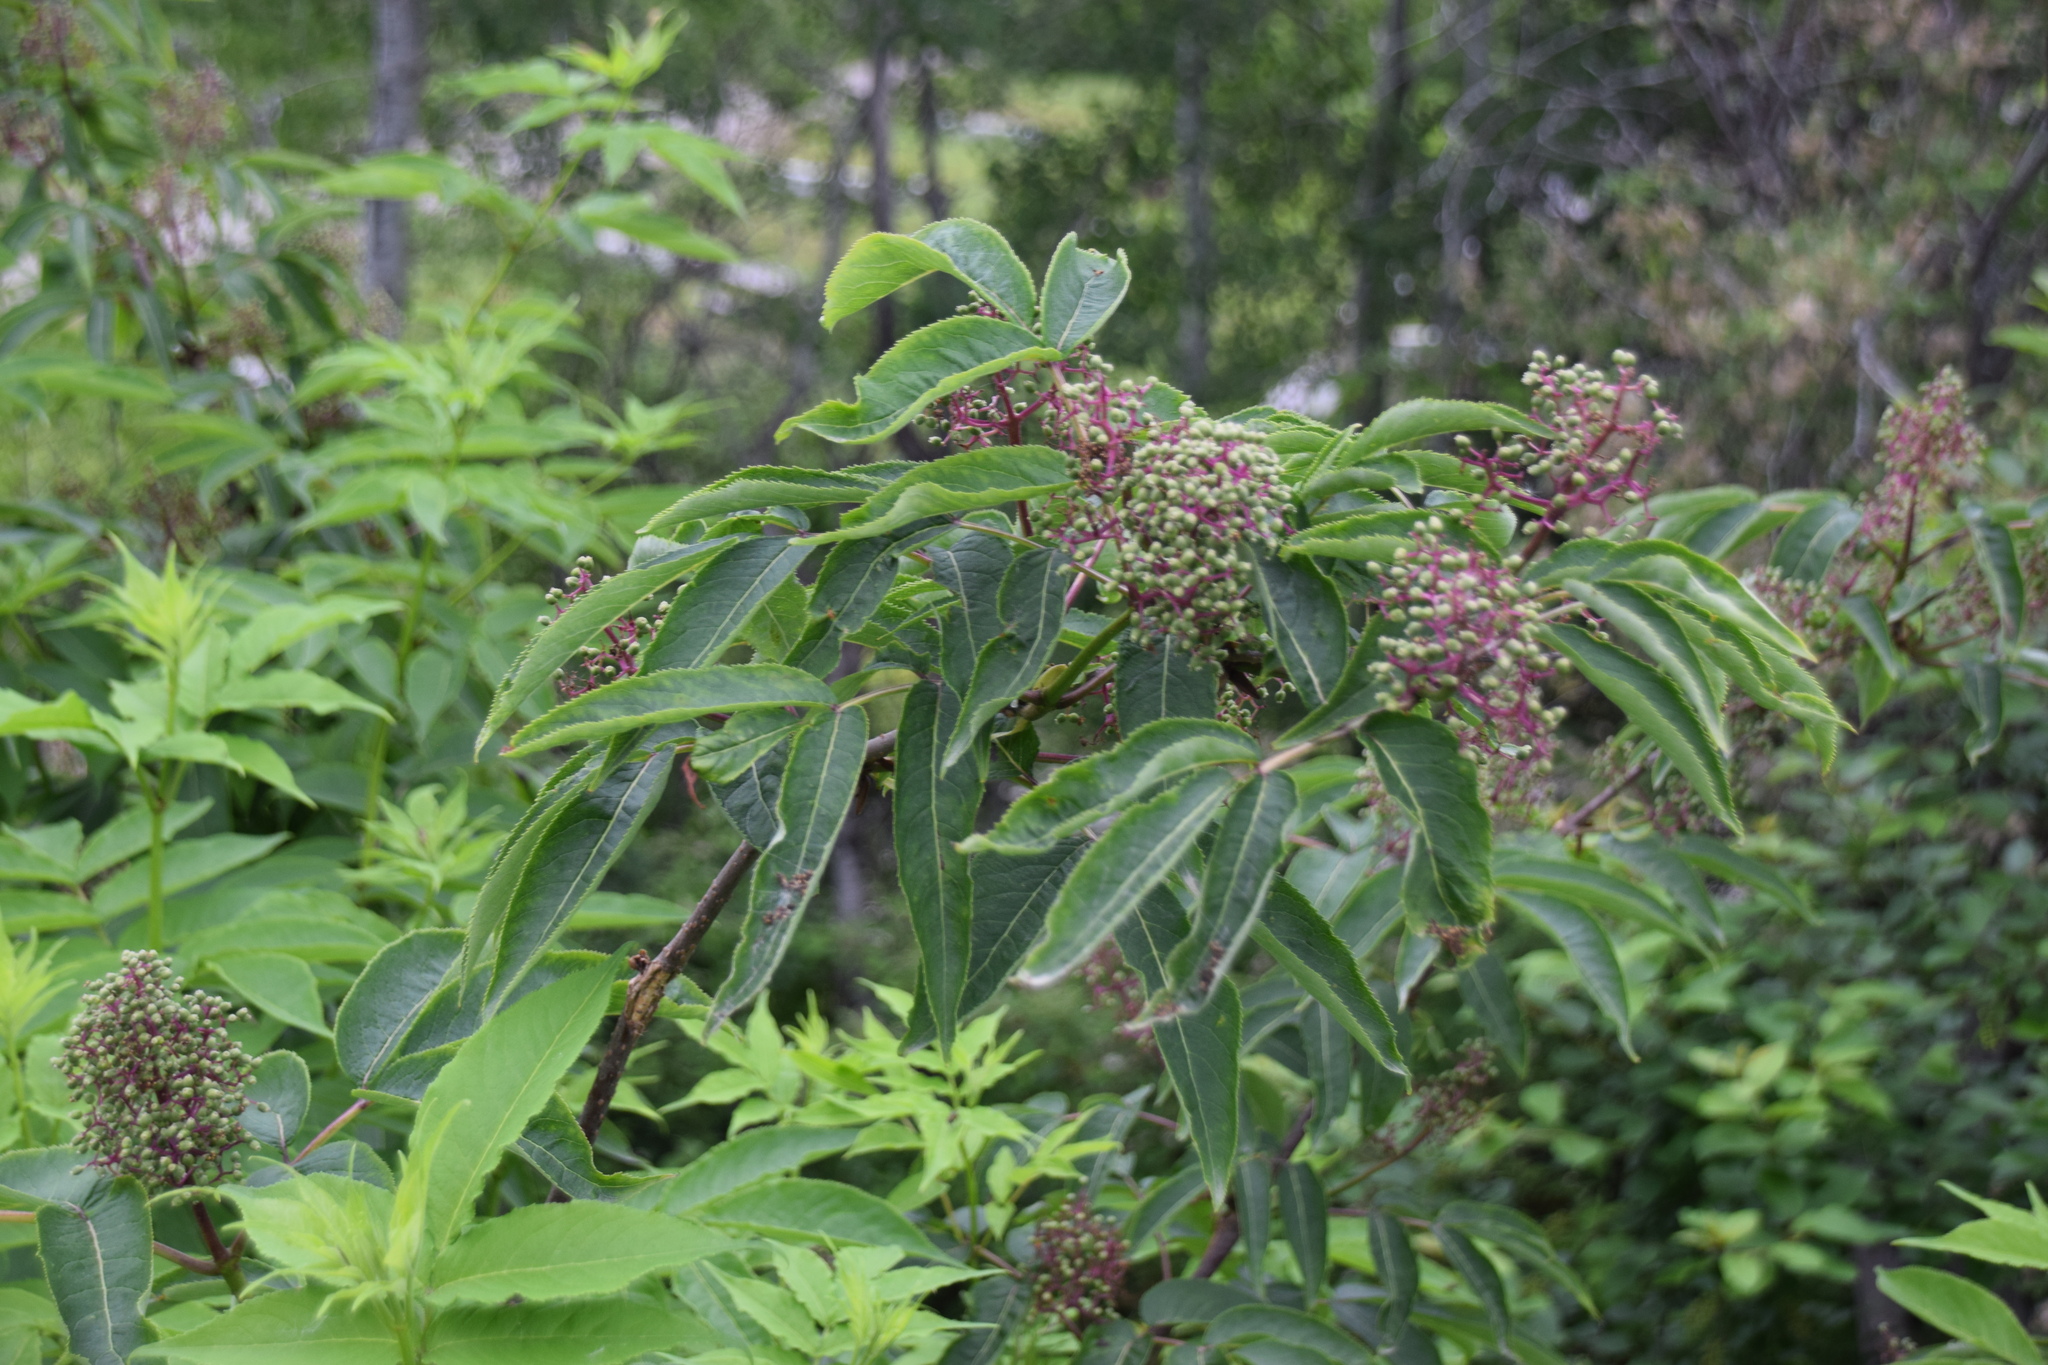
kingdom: Plantae
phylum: Tracheophyta
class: Magnoliopsida
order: Dipsacales
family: Viburnaceae
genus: Sambucus
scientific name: Sambucus racemosa
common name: Red-berried elder
